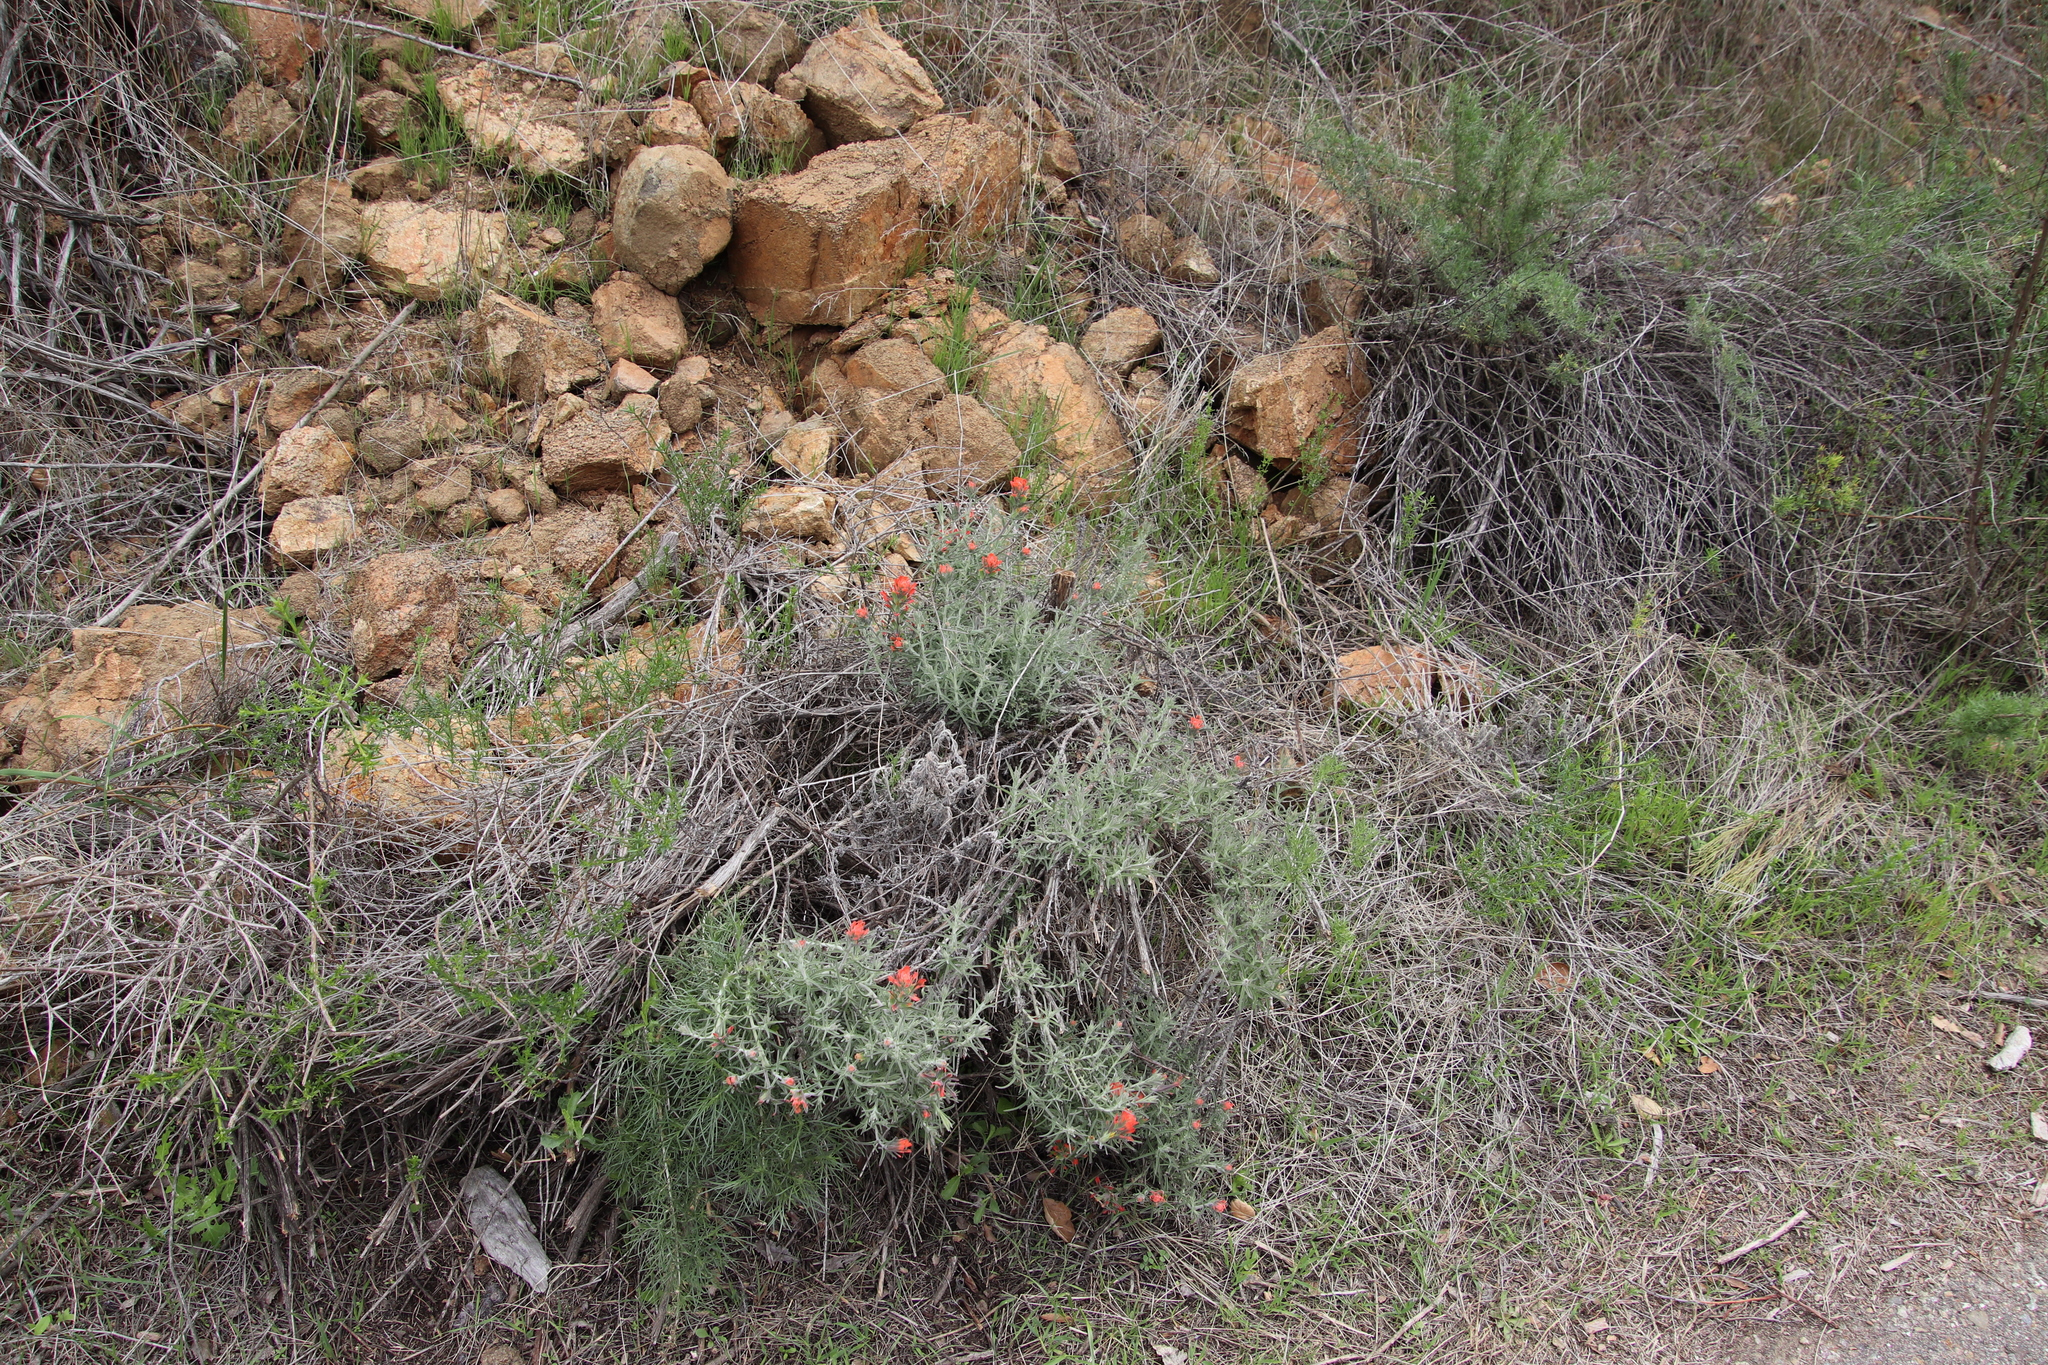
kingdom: Plantae
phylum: Tracheophyta
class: Magnoliopsida
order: Lamiales
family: Orobanchaceae
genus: Castilleja
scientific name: Castilleja foliolosa
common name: Woolly indian paintbrush
